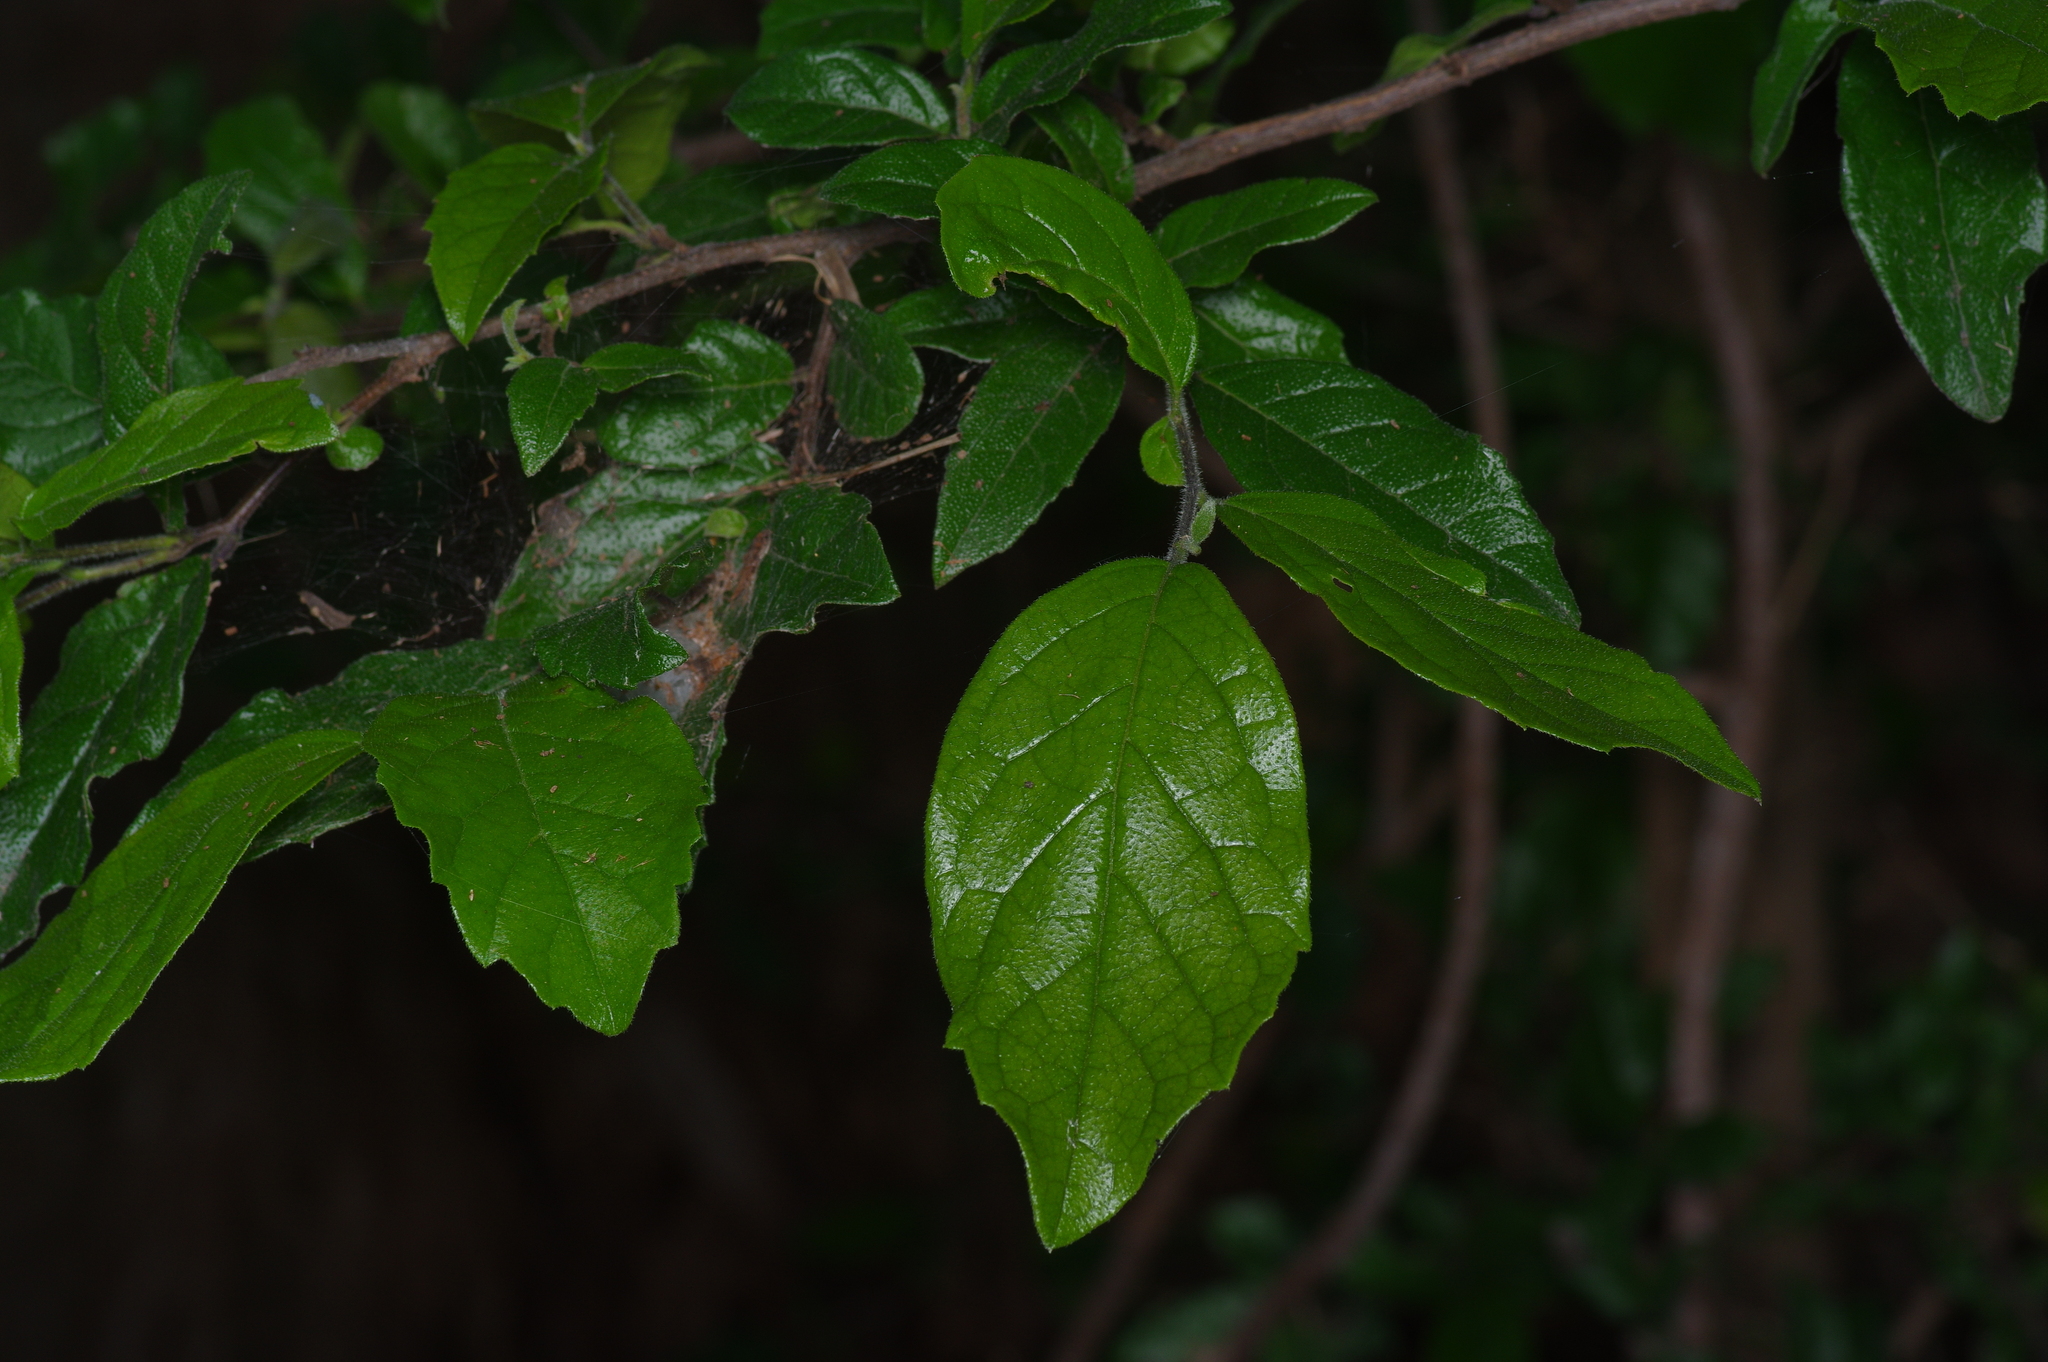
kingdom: Plantae
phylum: Tracheophyta
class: Magnoliopsida
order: Boraginales
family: Ehretiaceae
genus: Ehretia
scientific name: Ehretia anacua
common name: Sugarberry
